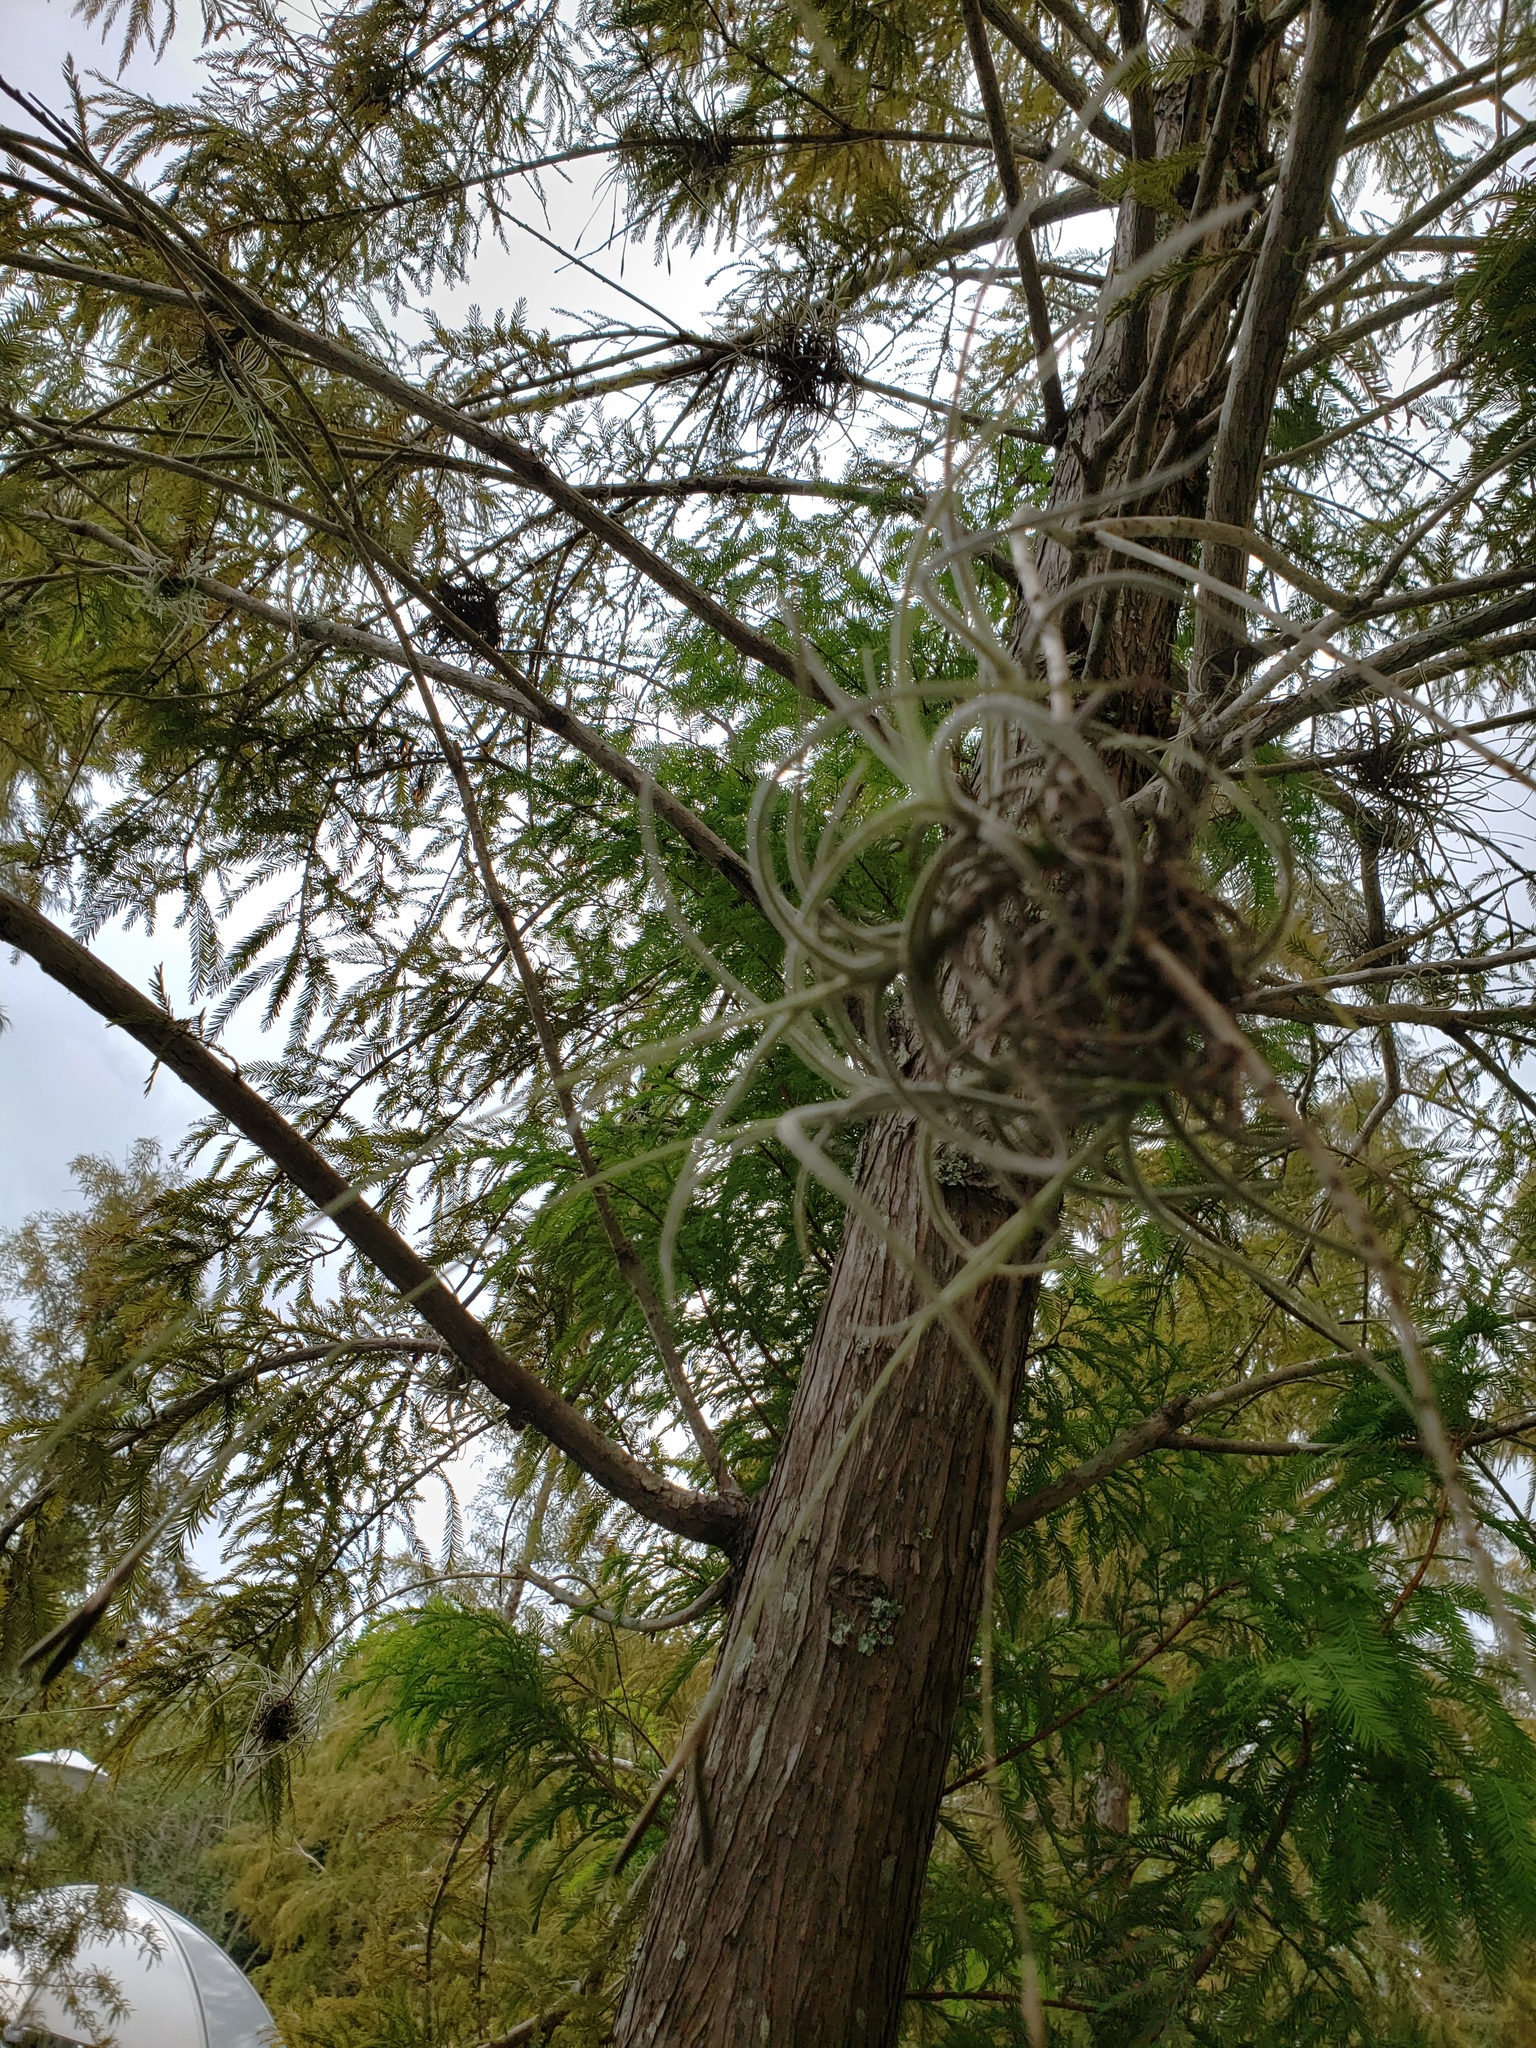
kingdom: Plantae
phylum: Tracheophyta
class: Liliopsida
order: Poales
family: Bromeliaceae
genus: Tillandsia
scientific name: Tillandsia recurvata
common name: Small ballmoss
